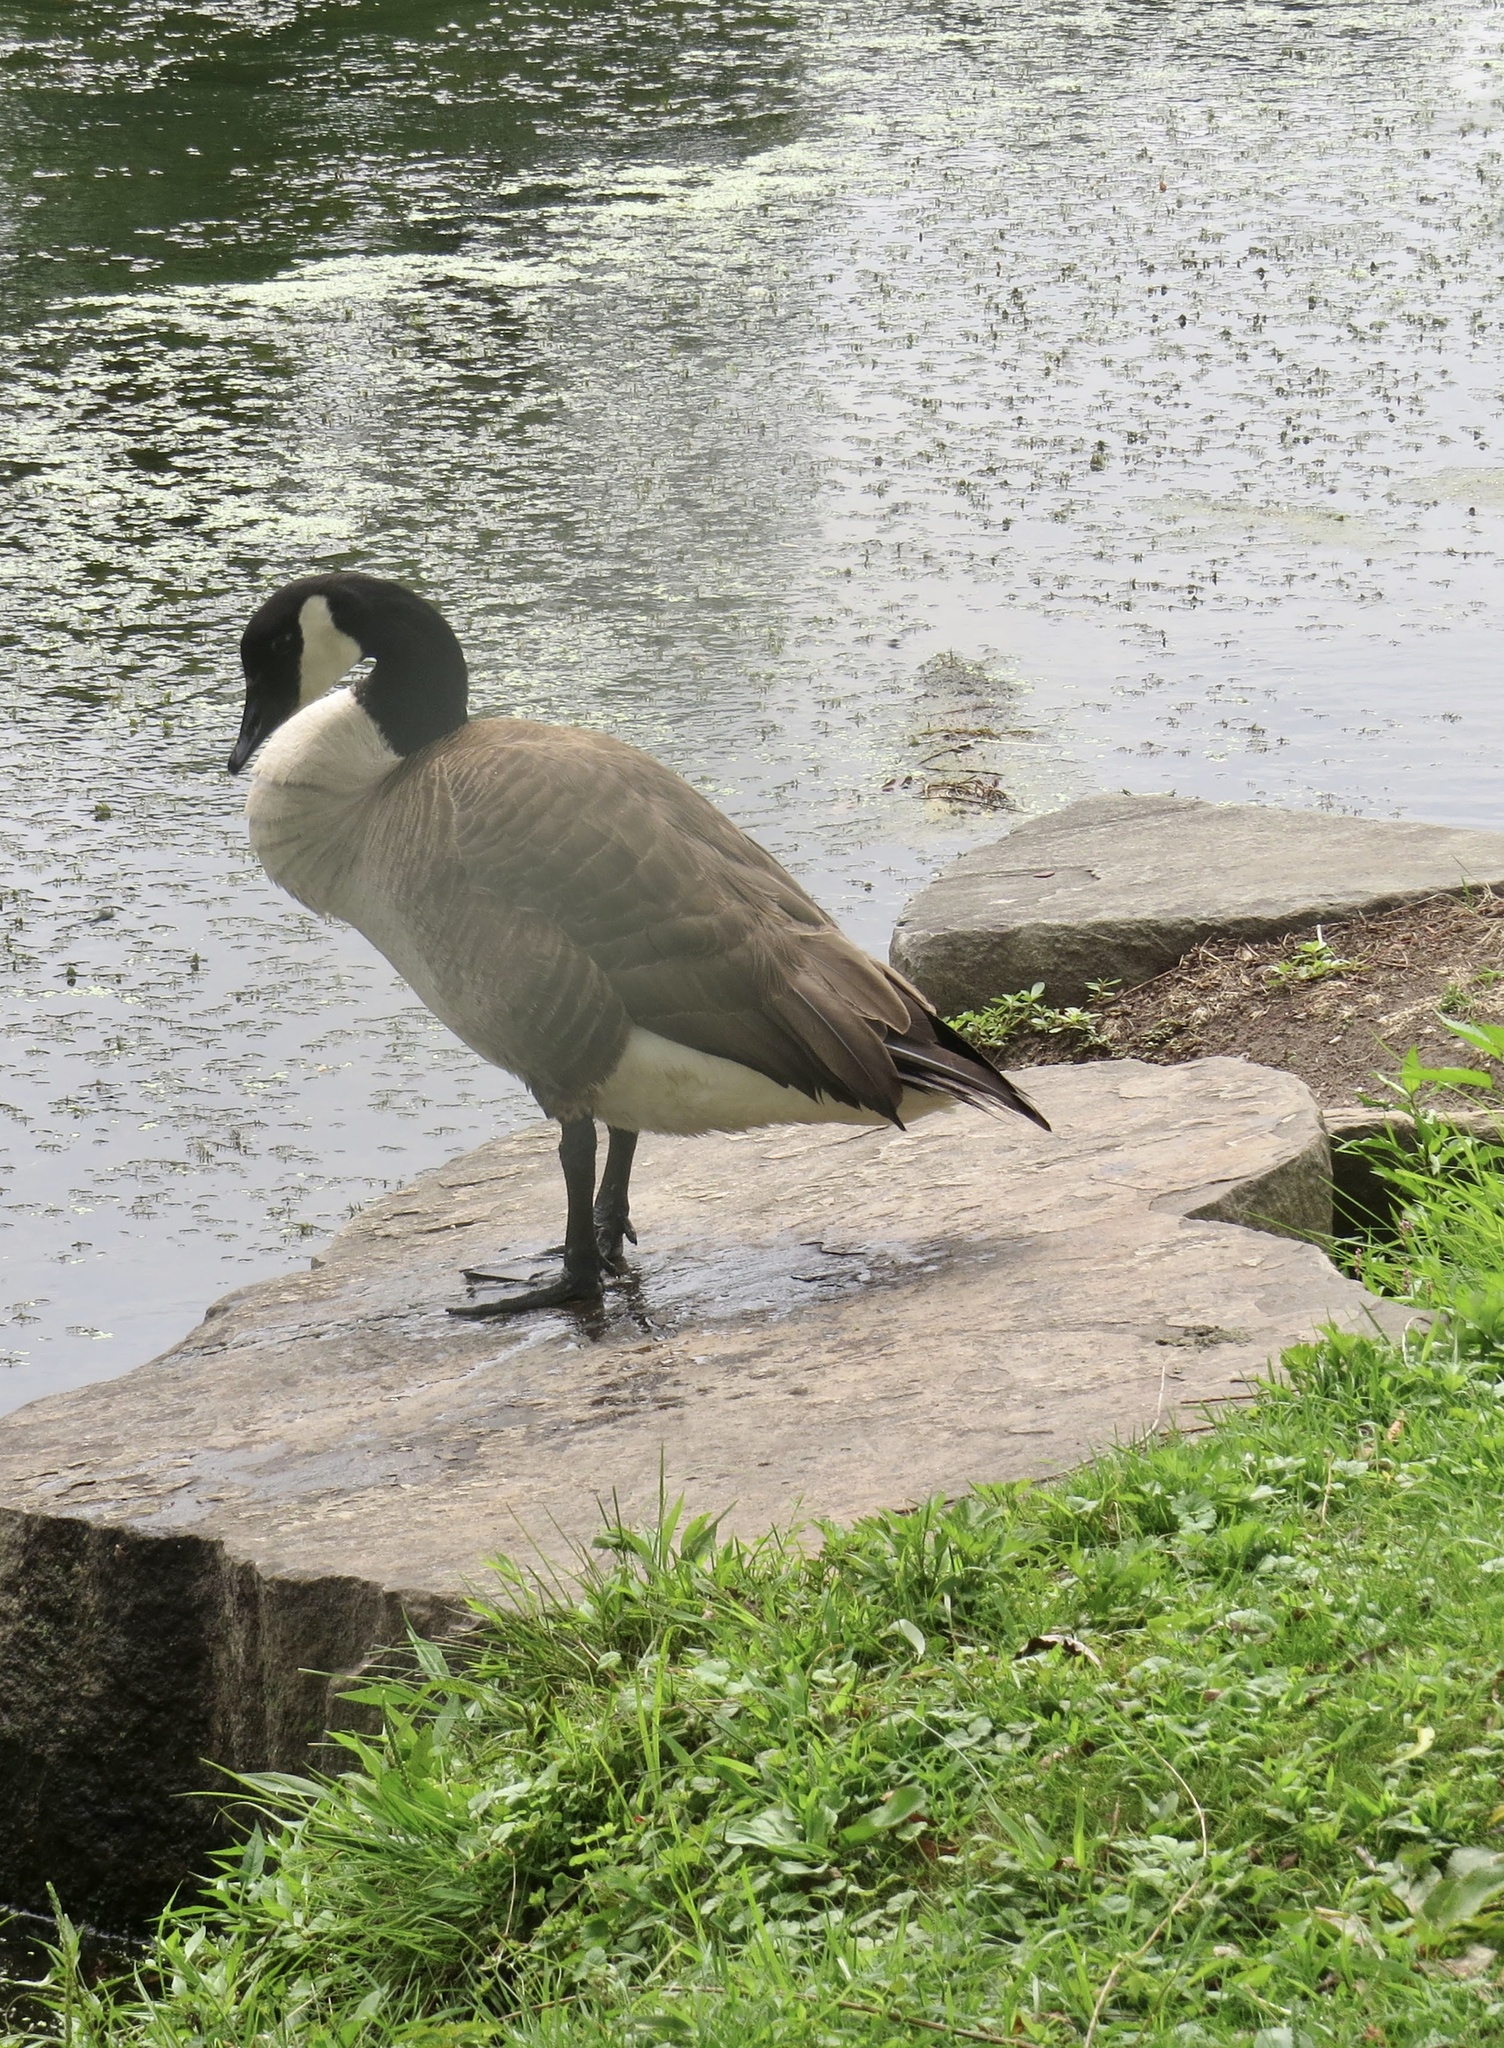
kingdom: Animalia
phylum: Chordata
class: Aves
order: Anseriformes
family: Anatidae
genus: Branta
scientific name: Branta canadensis
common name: Canada goose
